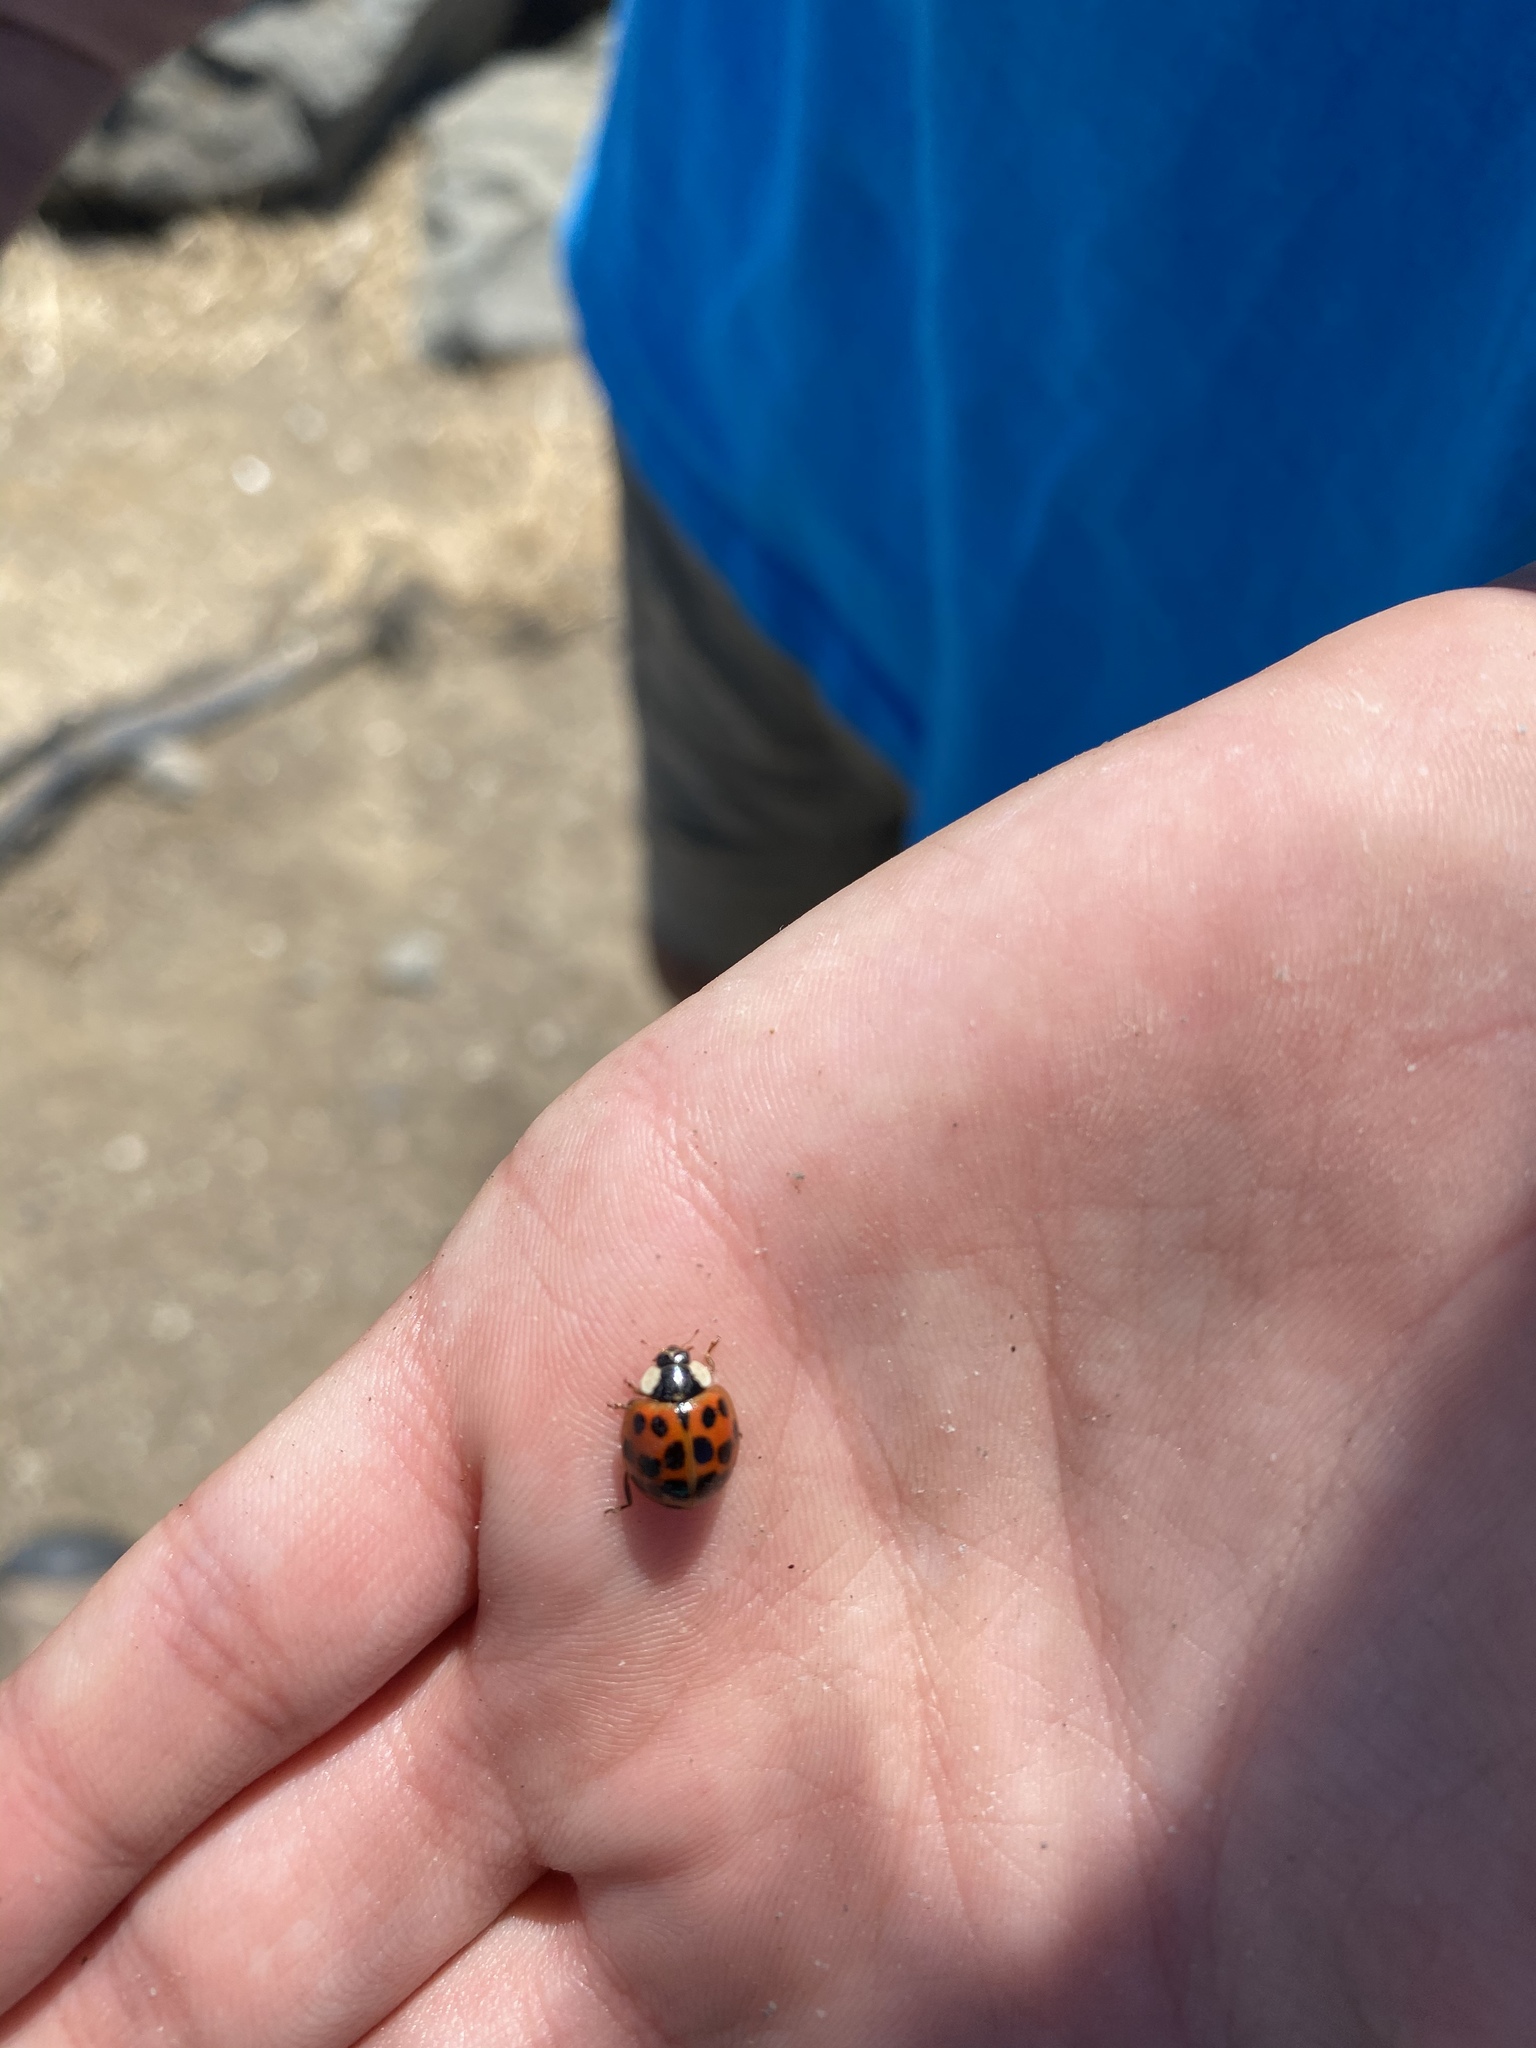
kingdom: Animalia
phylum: Arthropoda
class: Insecta
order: Coleoptera
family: Coccinellidae
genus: Harmonia
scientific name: Harmonia axyridis
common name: Harlequin ladybird
